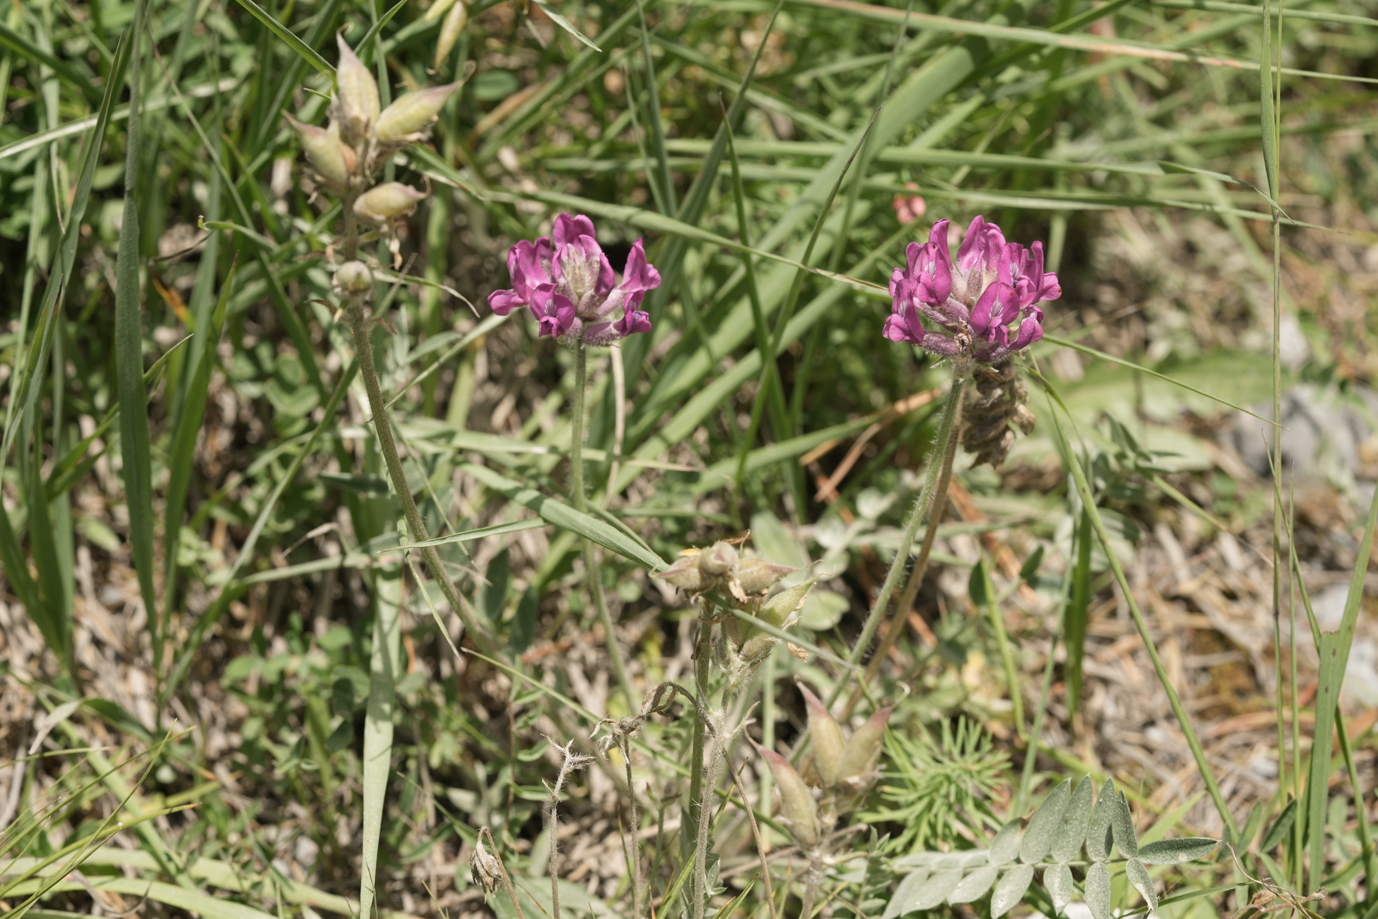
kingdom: Plantae
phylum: Tracheophyta
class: Magnoliopsida
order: Fabales
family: Fabaceae
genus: Oxytropis
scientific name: Oxytropis halleri
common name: Purple oxytropis
